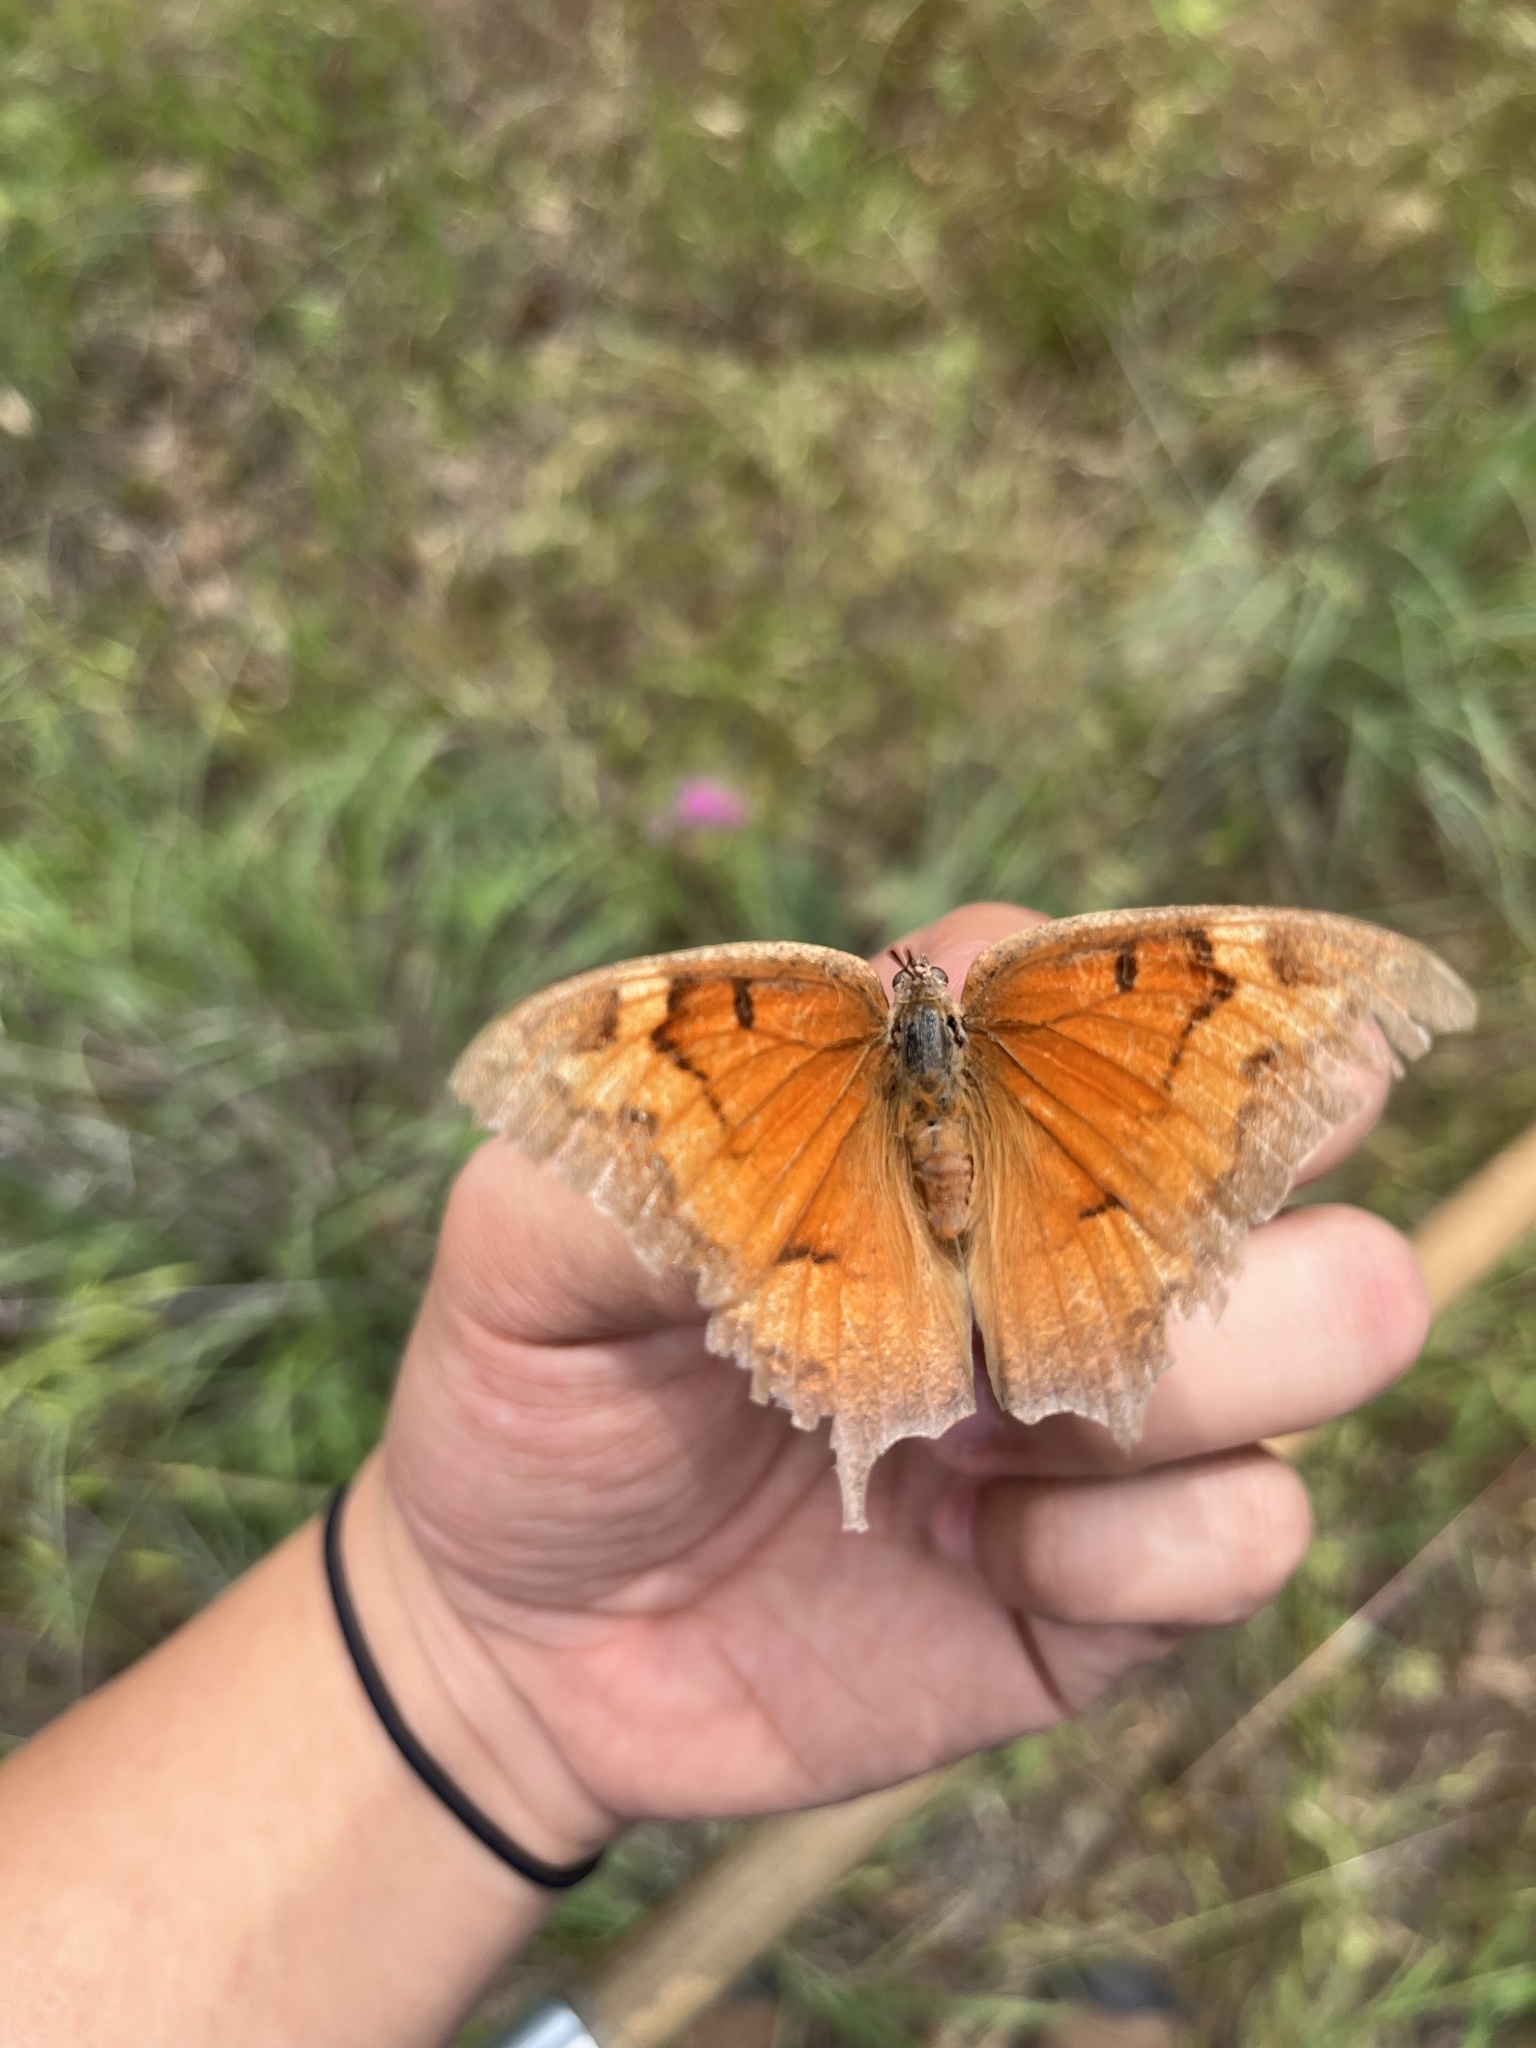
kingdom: Animalia
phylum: Arthropoda
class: Insecta
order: Lepidoptera
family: Nymphalidae
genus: Anaea
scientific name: Anaea andria
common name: Goatweed leafwing
